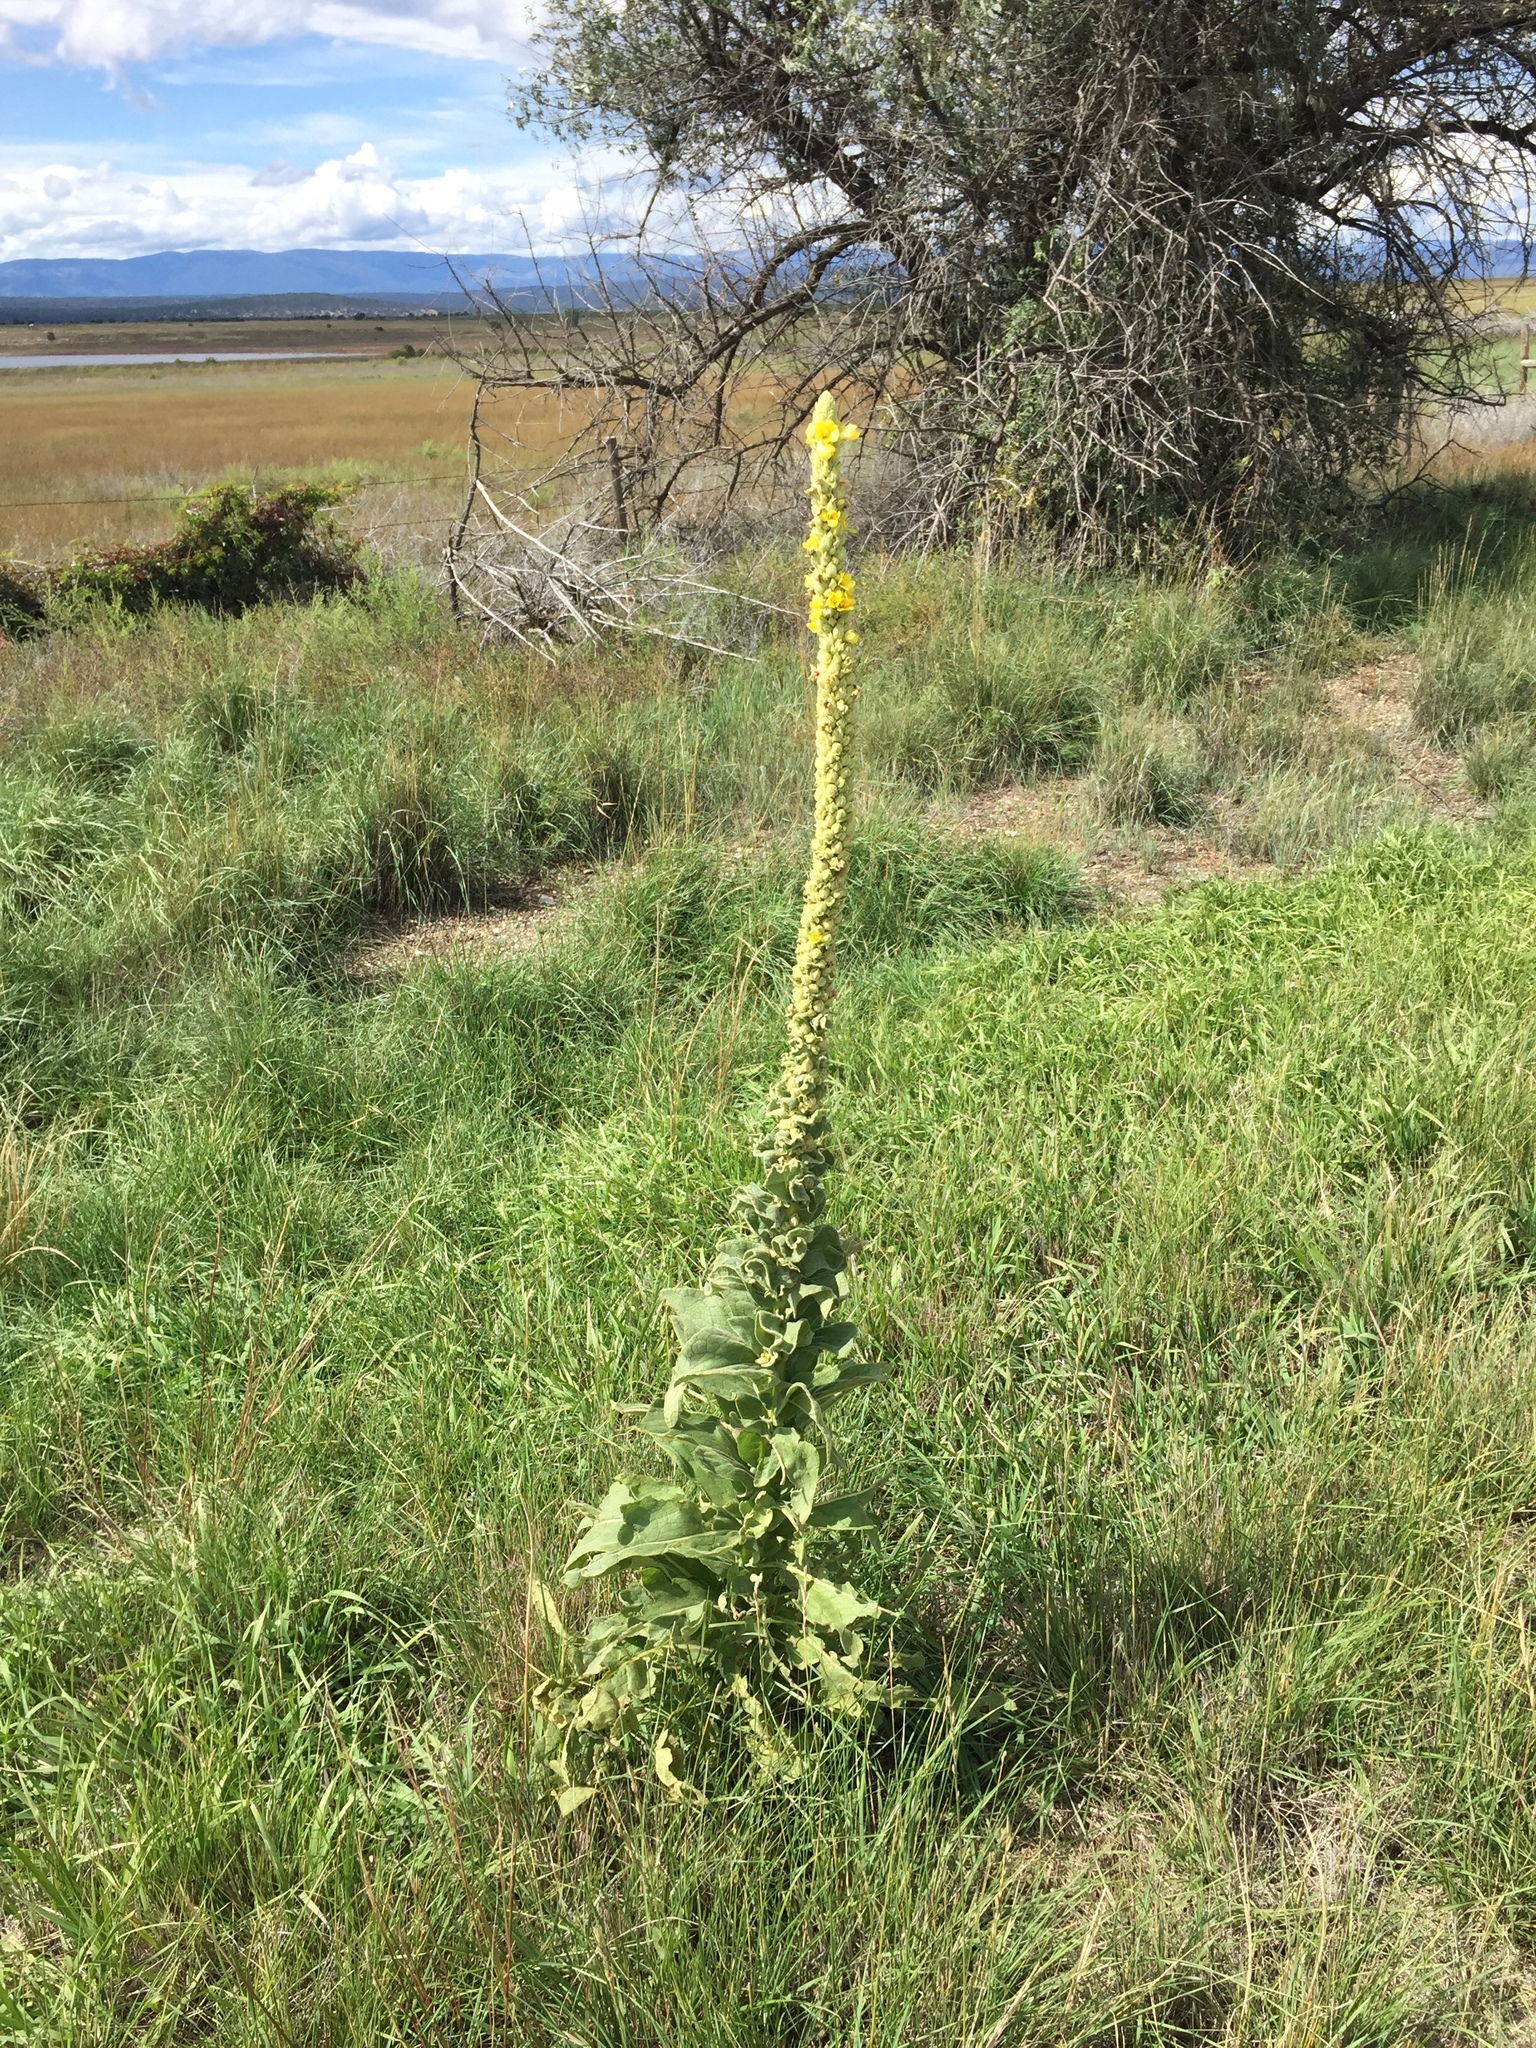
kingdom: Plantae
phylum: Tracheophyta
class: Magnoliopsida
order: Lamiales
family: Scrophulariaceae
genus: Verbascum
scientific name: Verbascum thapsus
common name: Common mullein
